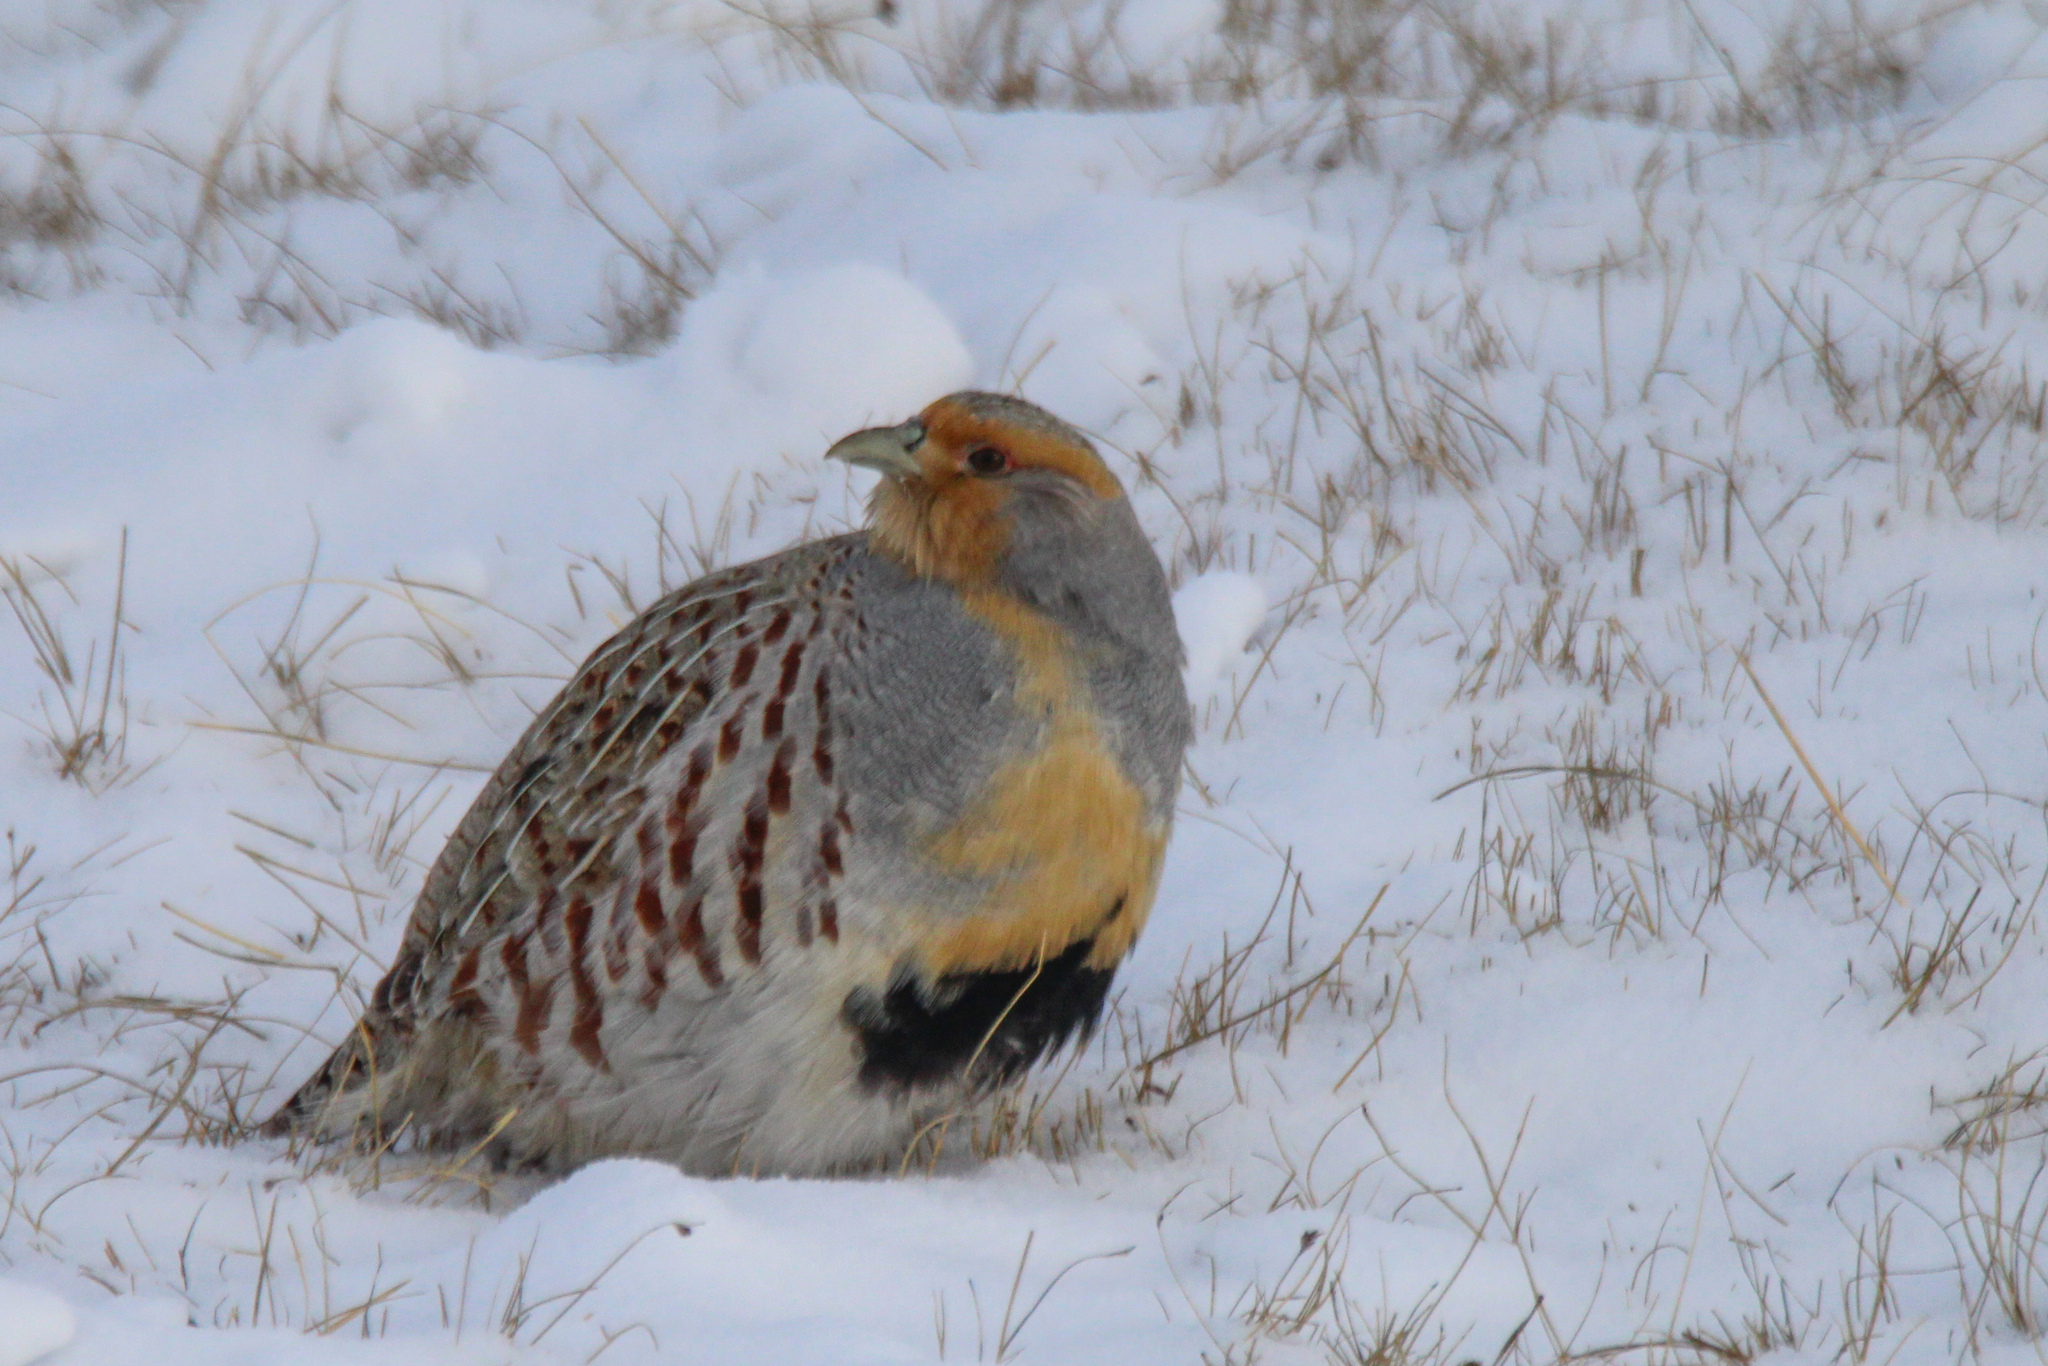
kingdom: Animalia
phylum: Chordata
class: Aves
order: Galliformes
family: Phasianidae
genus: Perdix
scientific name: Perdix dauurica
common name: Daurian partridge
